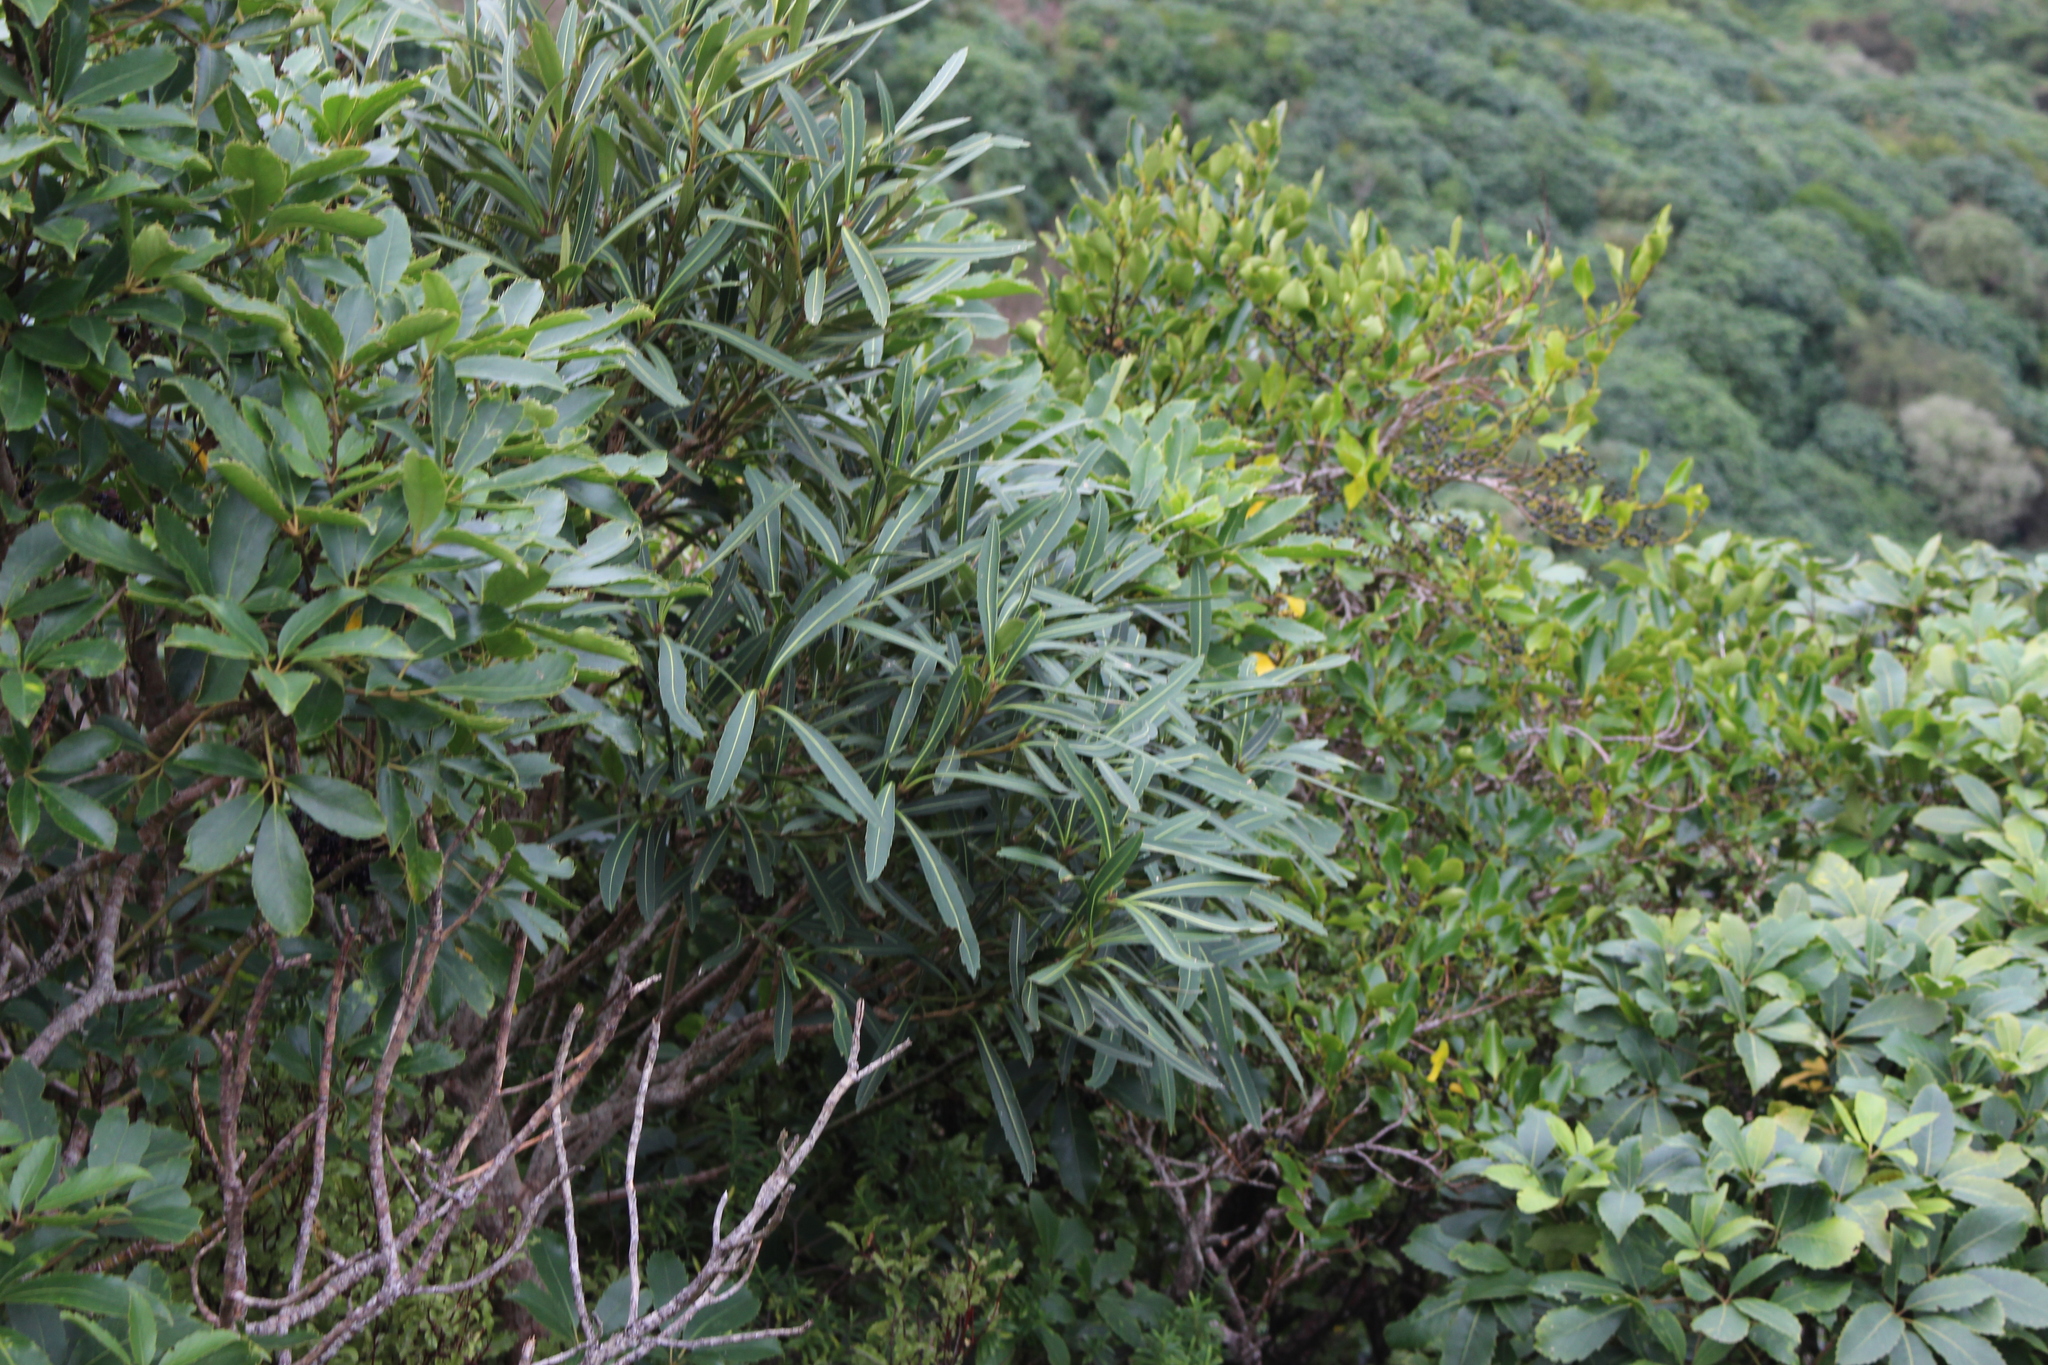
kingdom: Plantae
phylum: Tracheophyta
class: Magnoliopsida
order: Apiales
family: Araliaceae
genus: Pseudopanax
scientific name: Pseudopanax crassifolius
